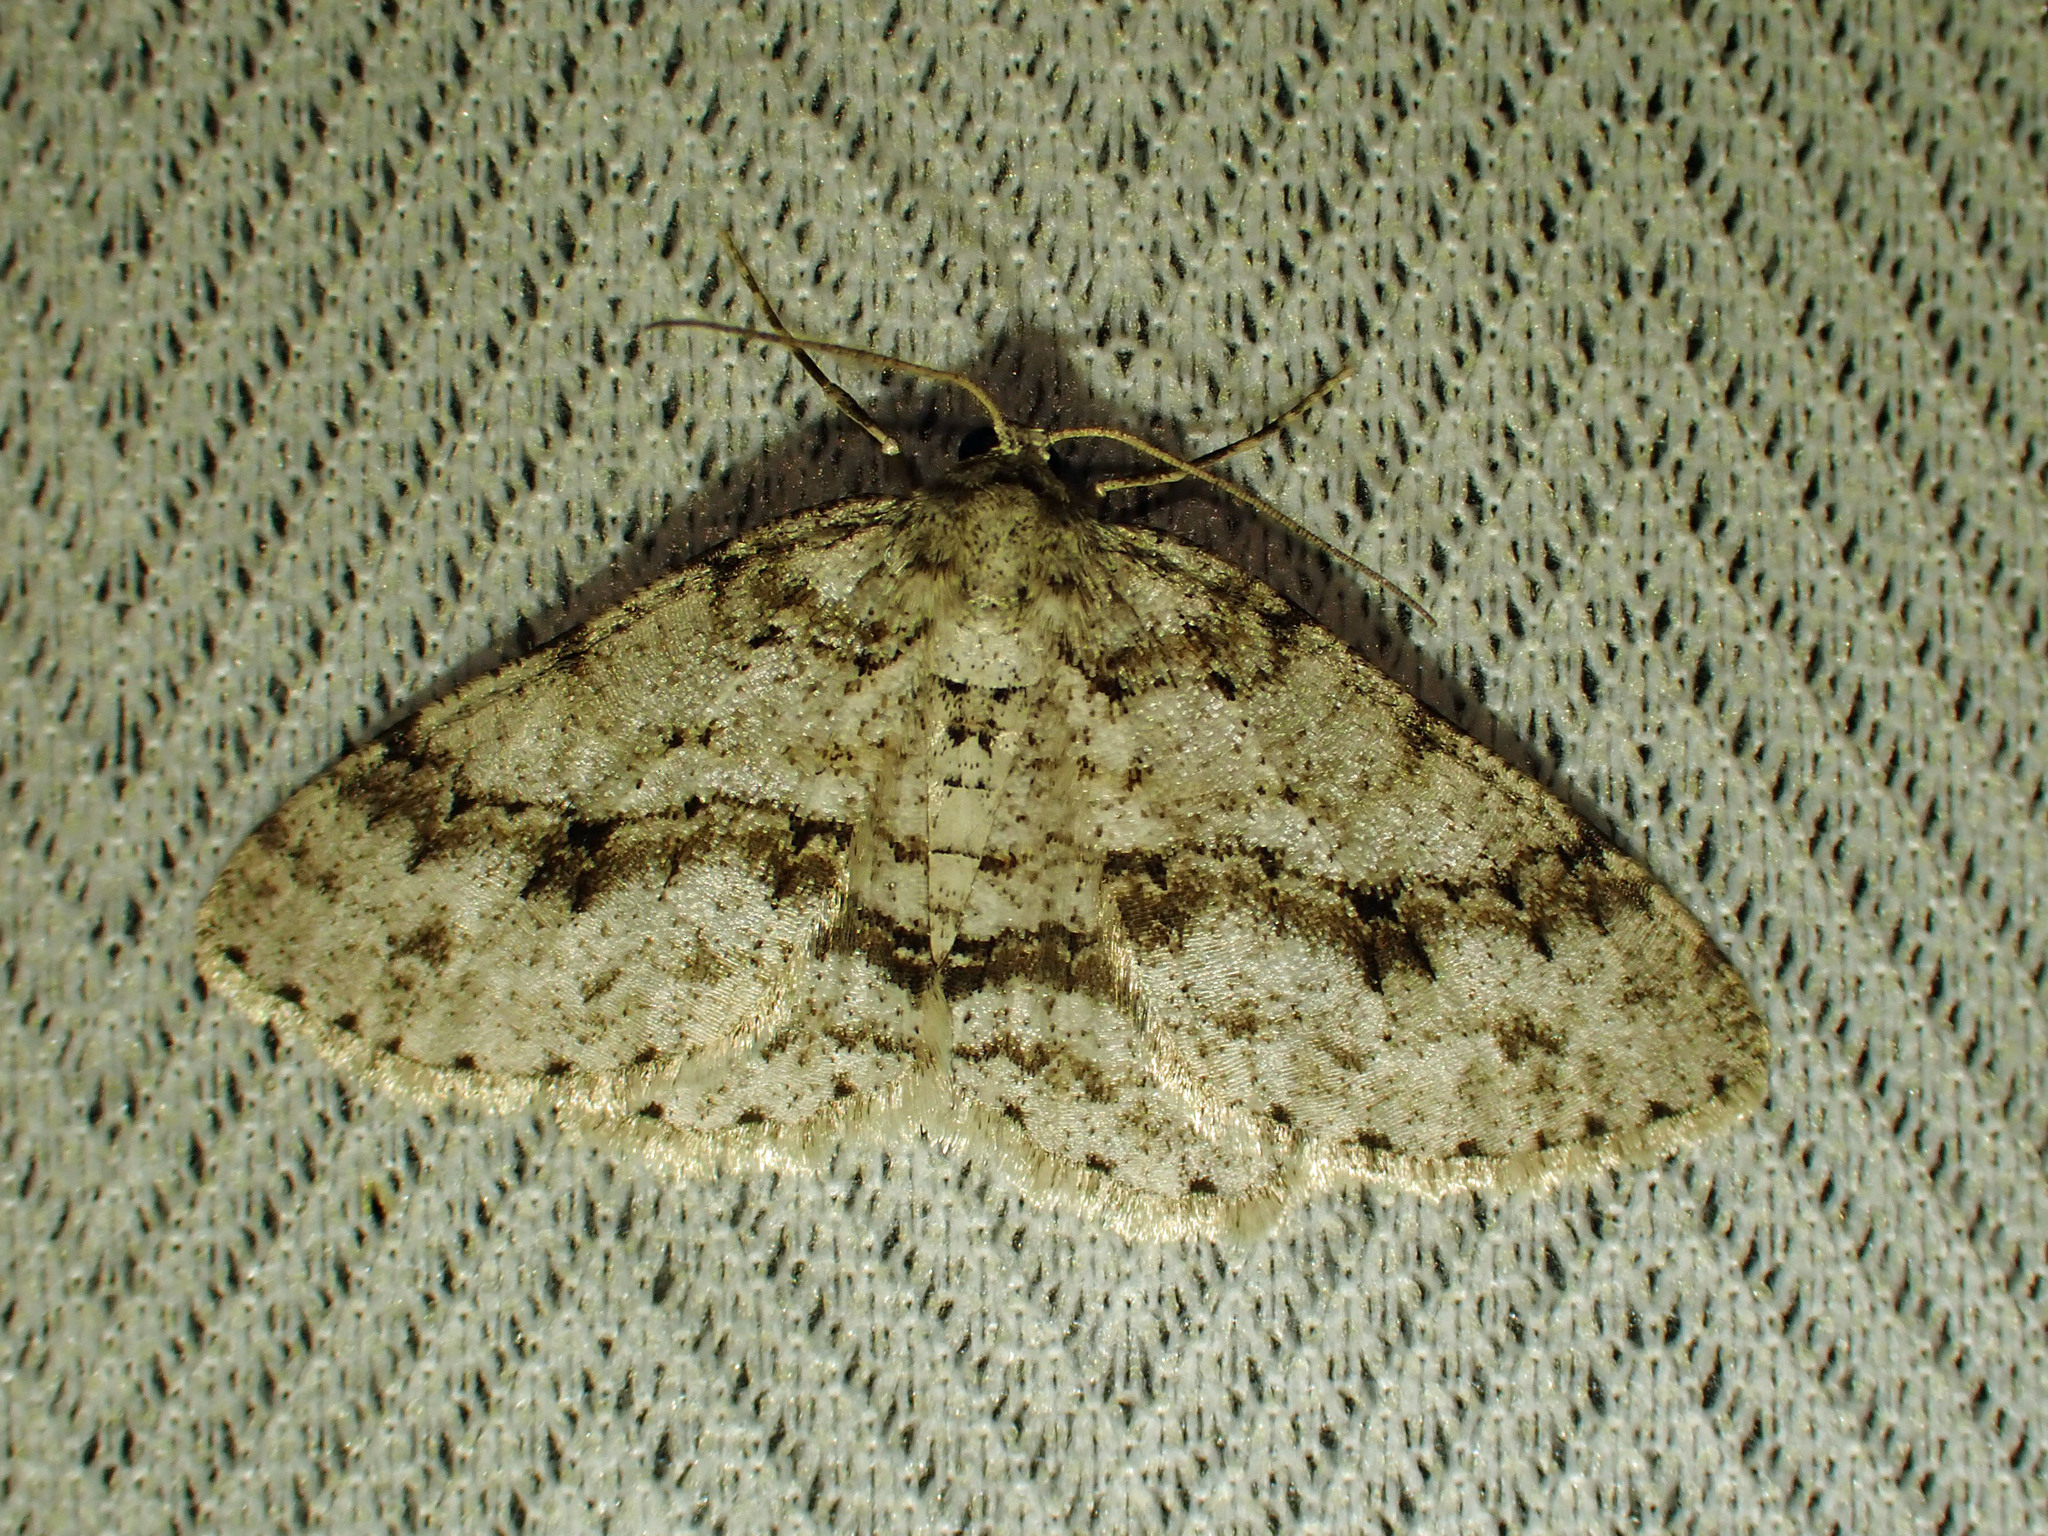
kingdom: Animalia
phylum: Arthropoda
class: Insecta
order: Lepidoptera
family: Geometridae
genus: Ectropis
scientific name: Ectropis crepuscularia
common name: Engrailed
